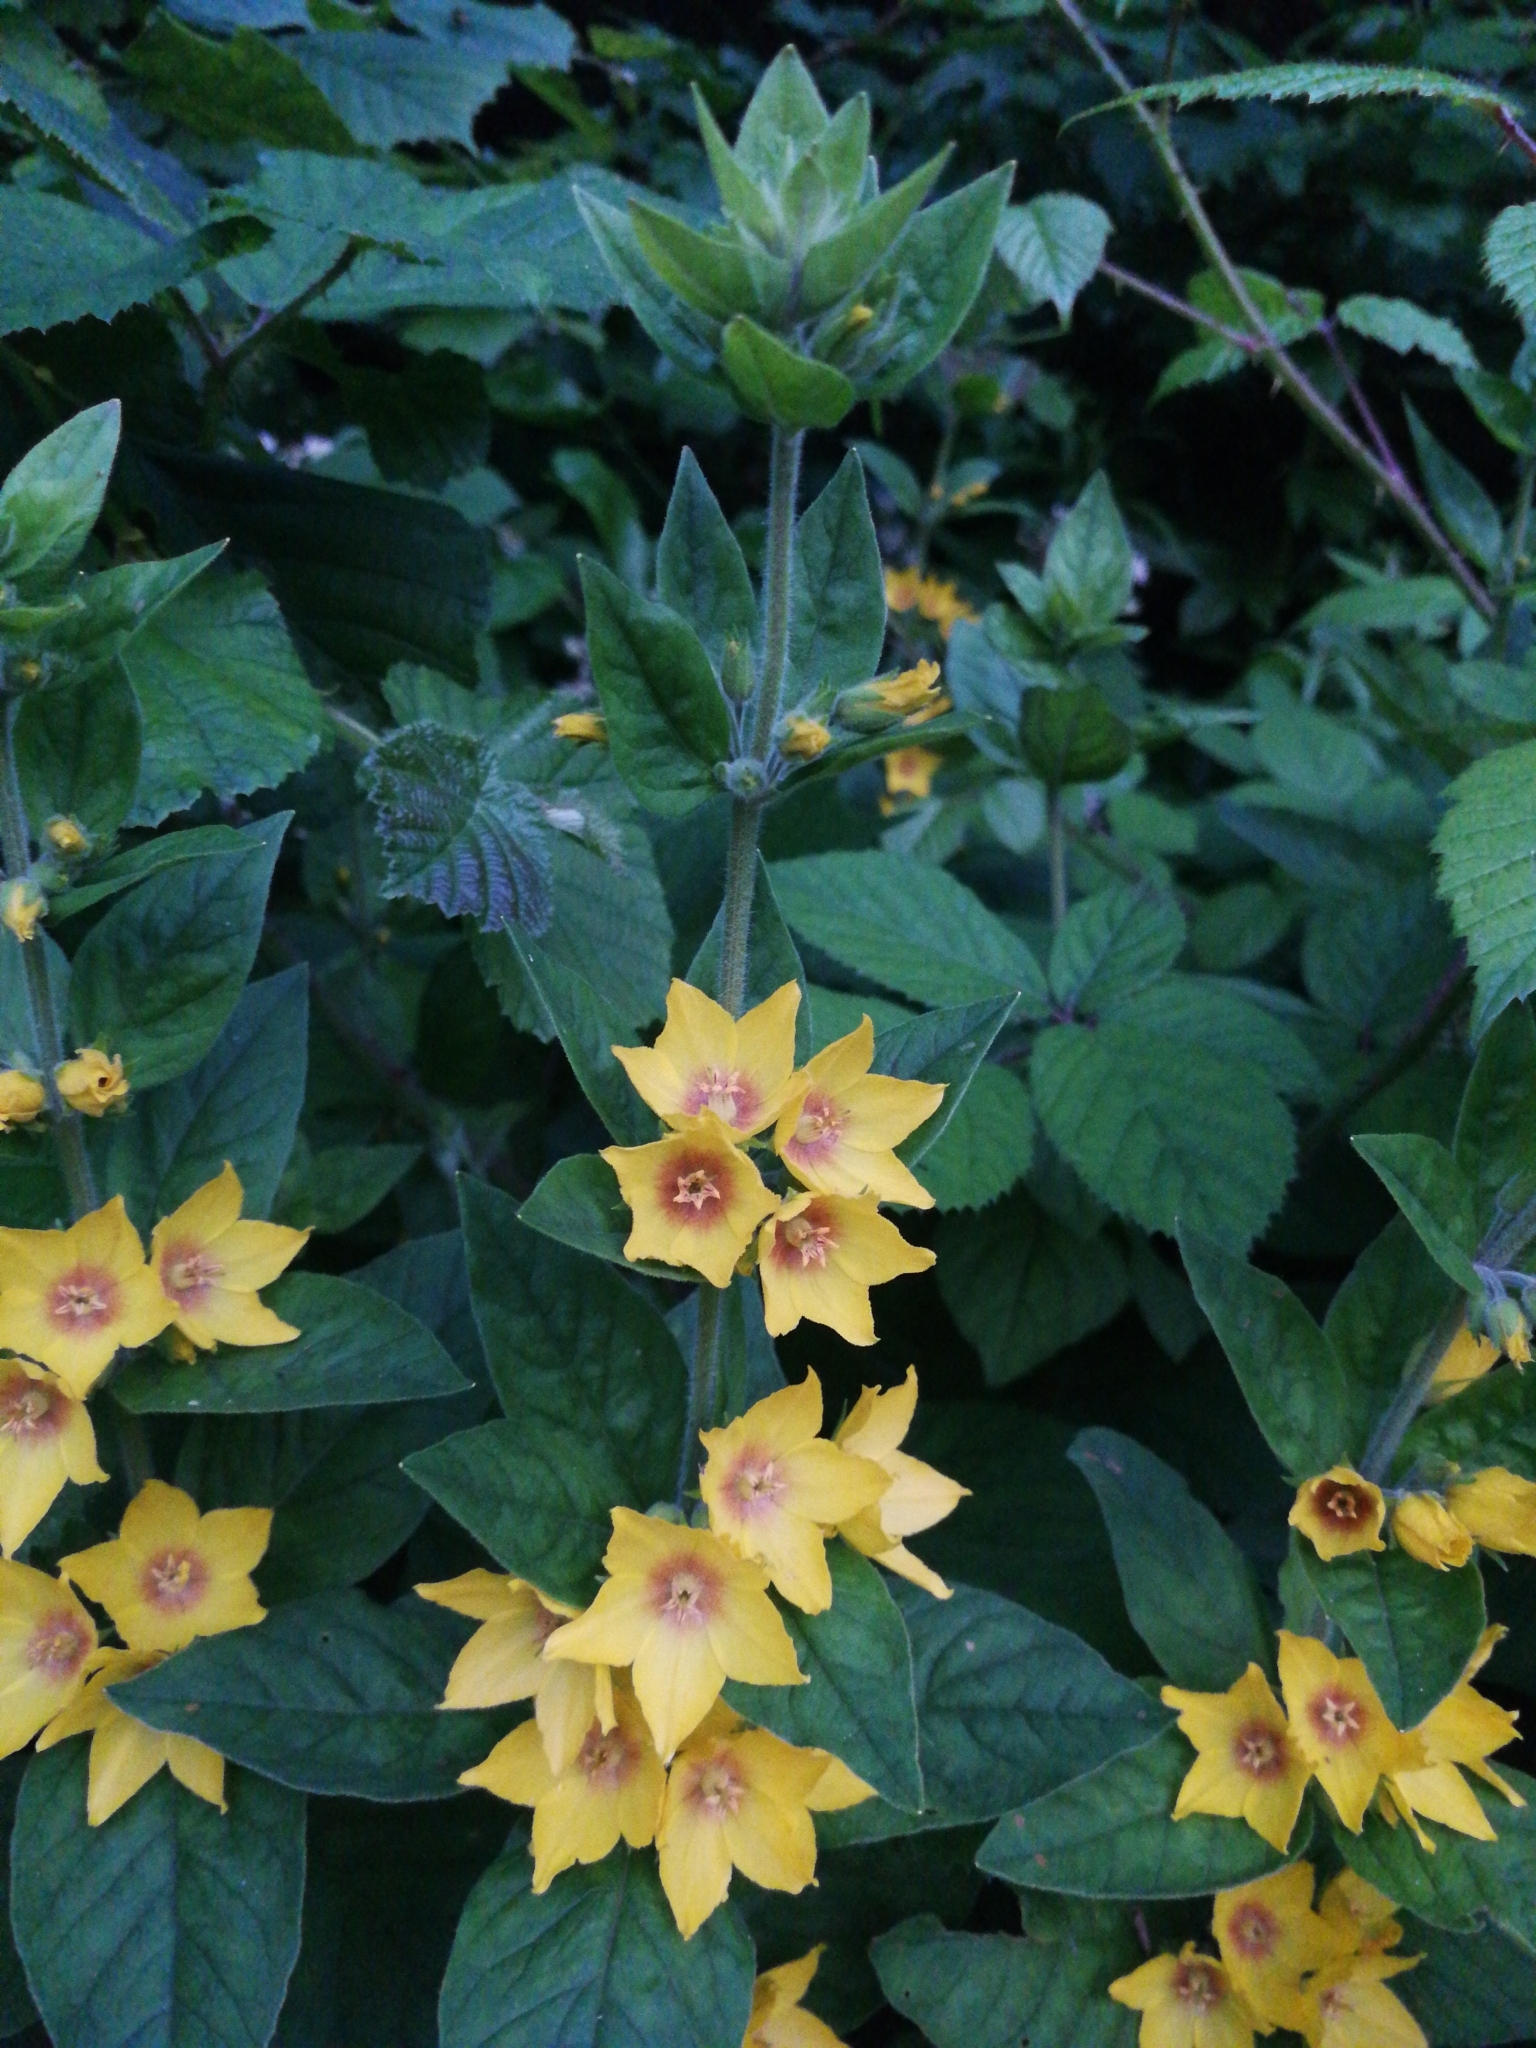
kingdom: Plantae
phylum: Tracheophyta
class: Magnoliopsida
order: Ericales
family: Primulaceae
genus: Lysimachia
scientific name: Lysimachia punctata
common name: Dotted loosestrife
